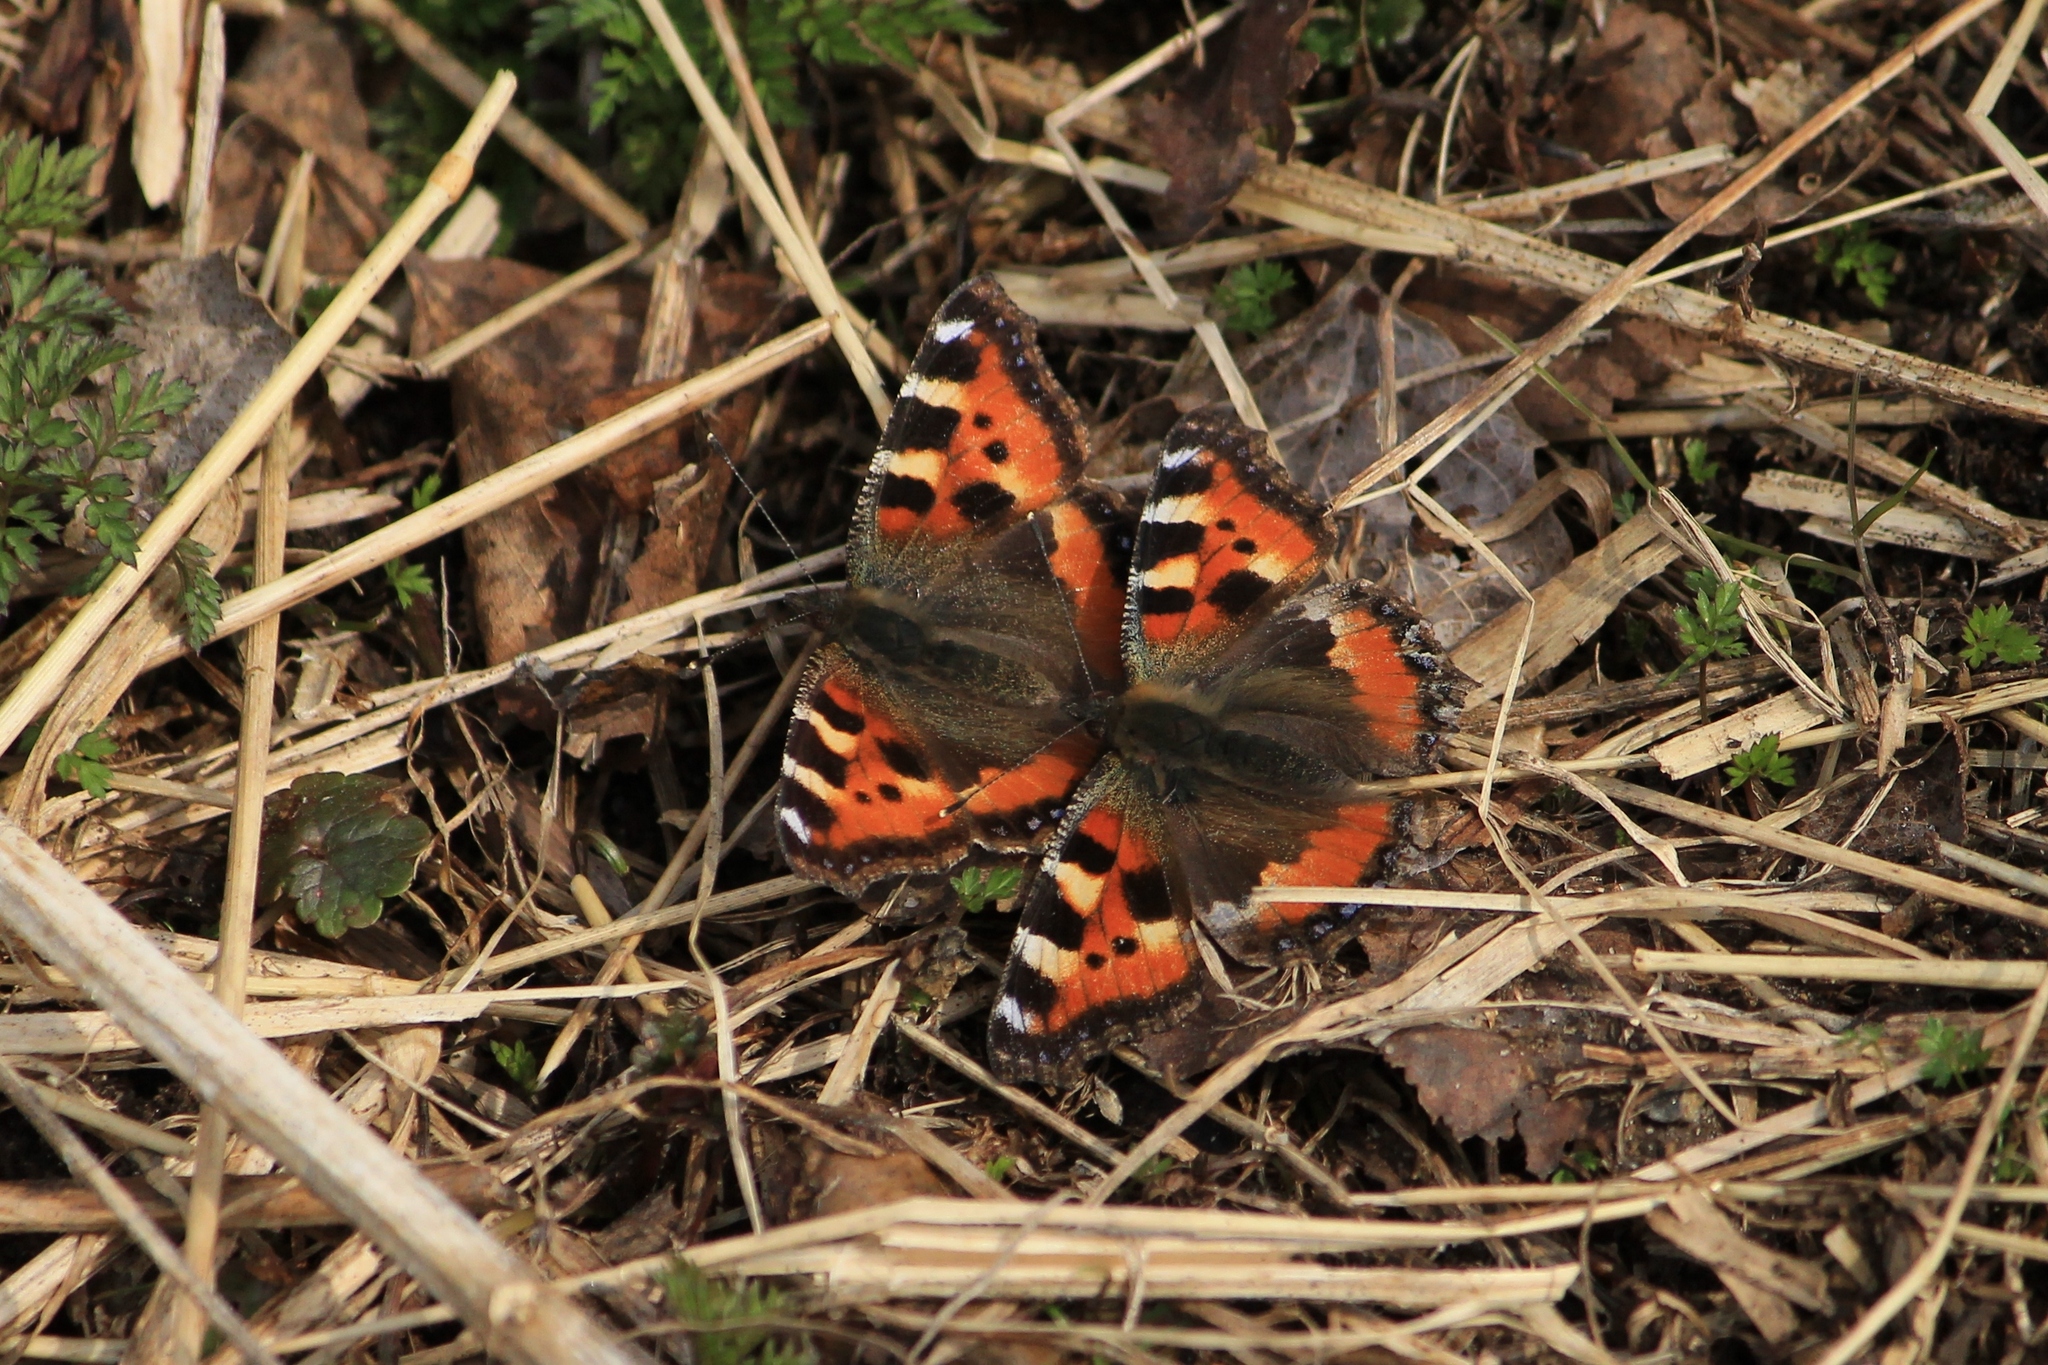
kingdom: Animalia
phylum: Arthropoda
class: Insecta
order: Lepidoptera
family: Nymphalidae
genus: Aglais
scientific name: Aglais urticae
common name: Small tortoiseshell
